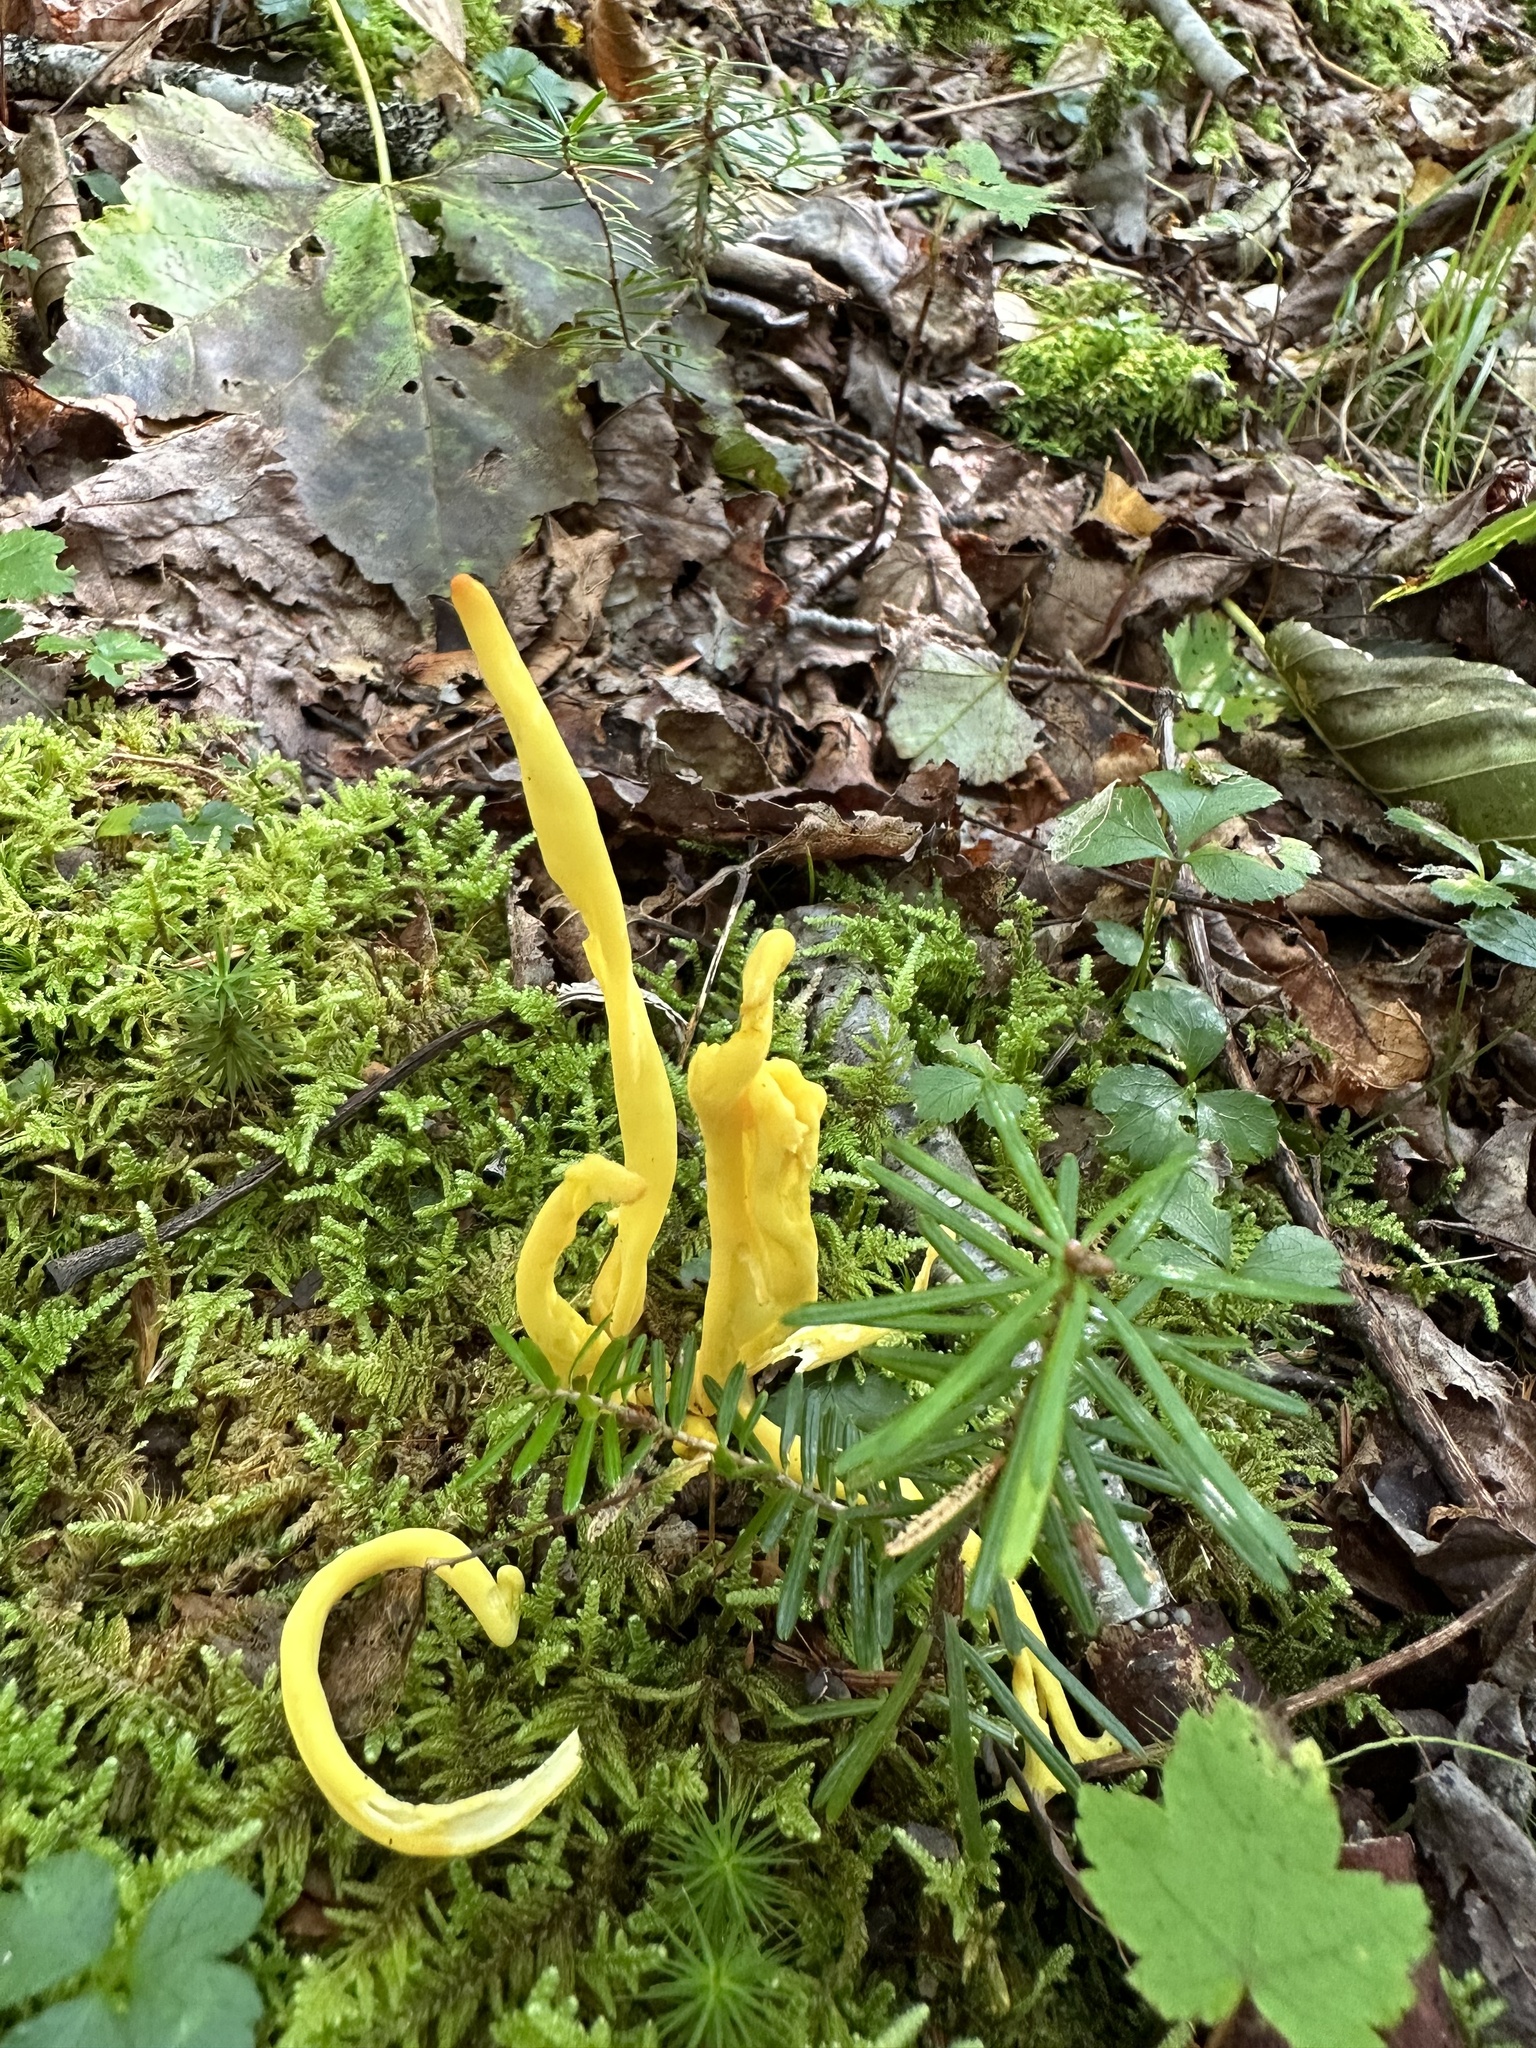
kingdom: Fungi
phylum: Basidiomycota
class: Agaricomycetes
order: Agaricales
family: Clavariaceae
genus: Clavulinopsis
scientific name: Clavulinopsis fusiformis
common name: Golden spindles
